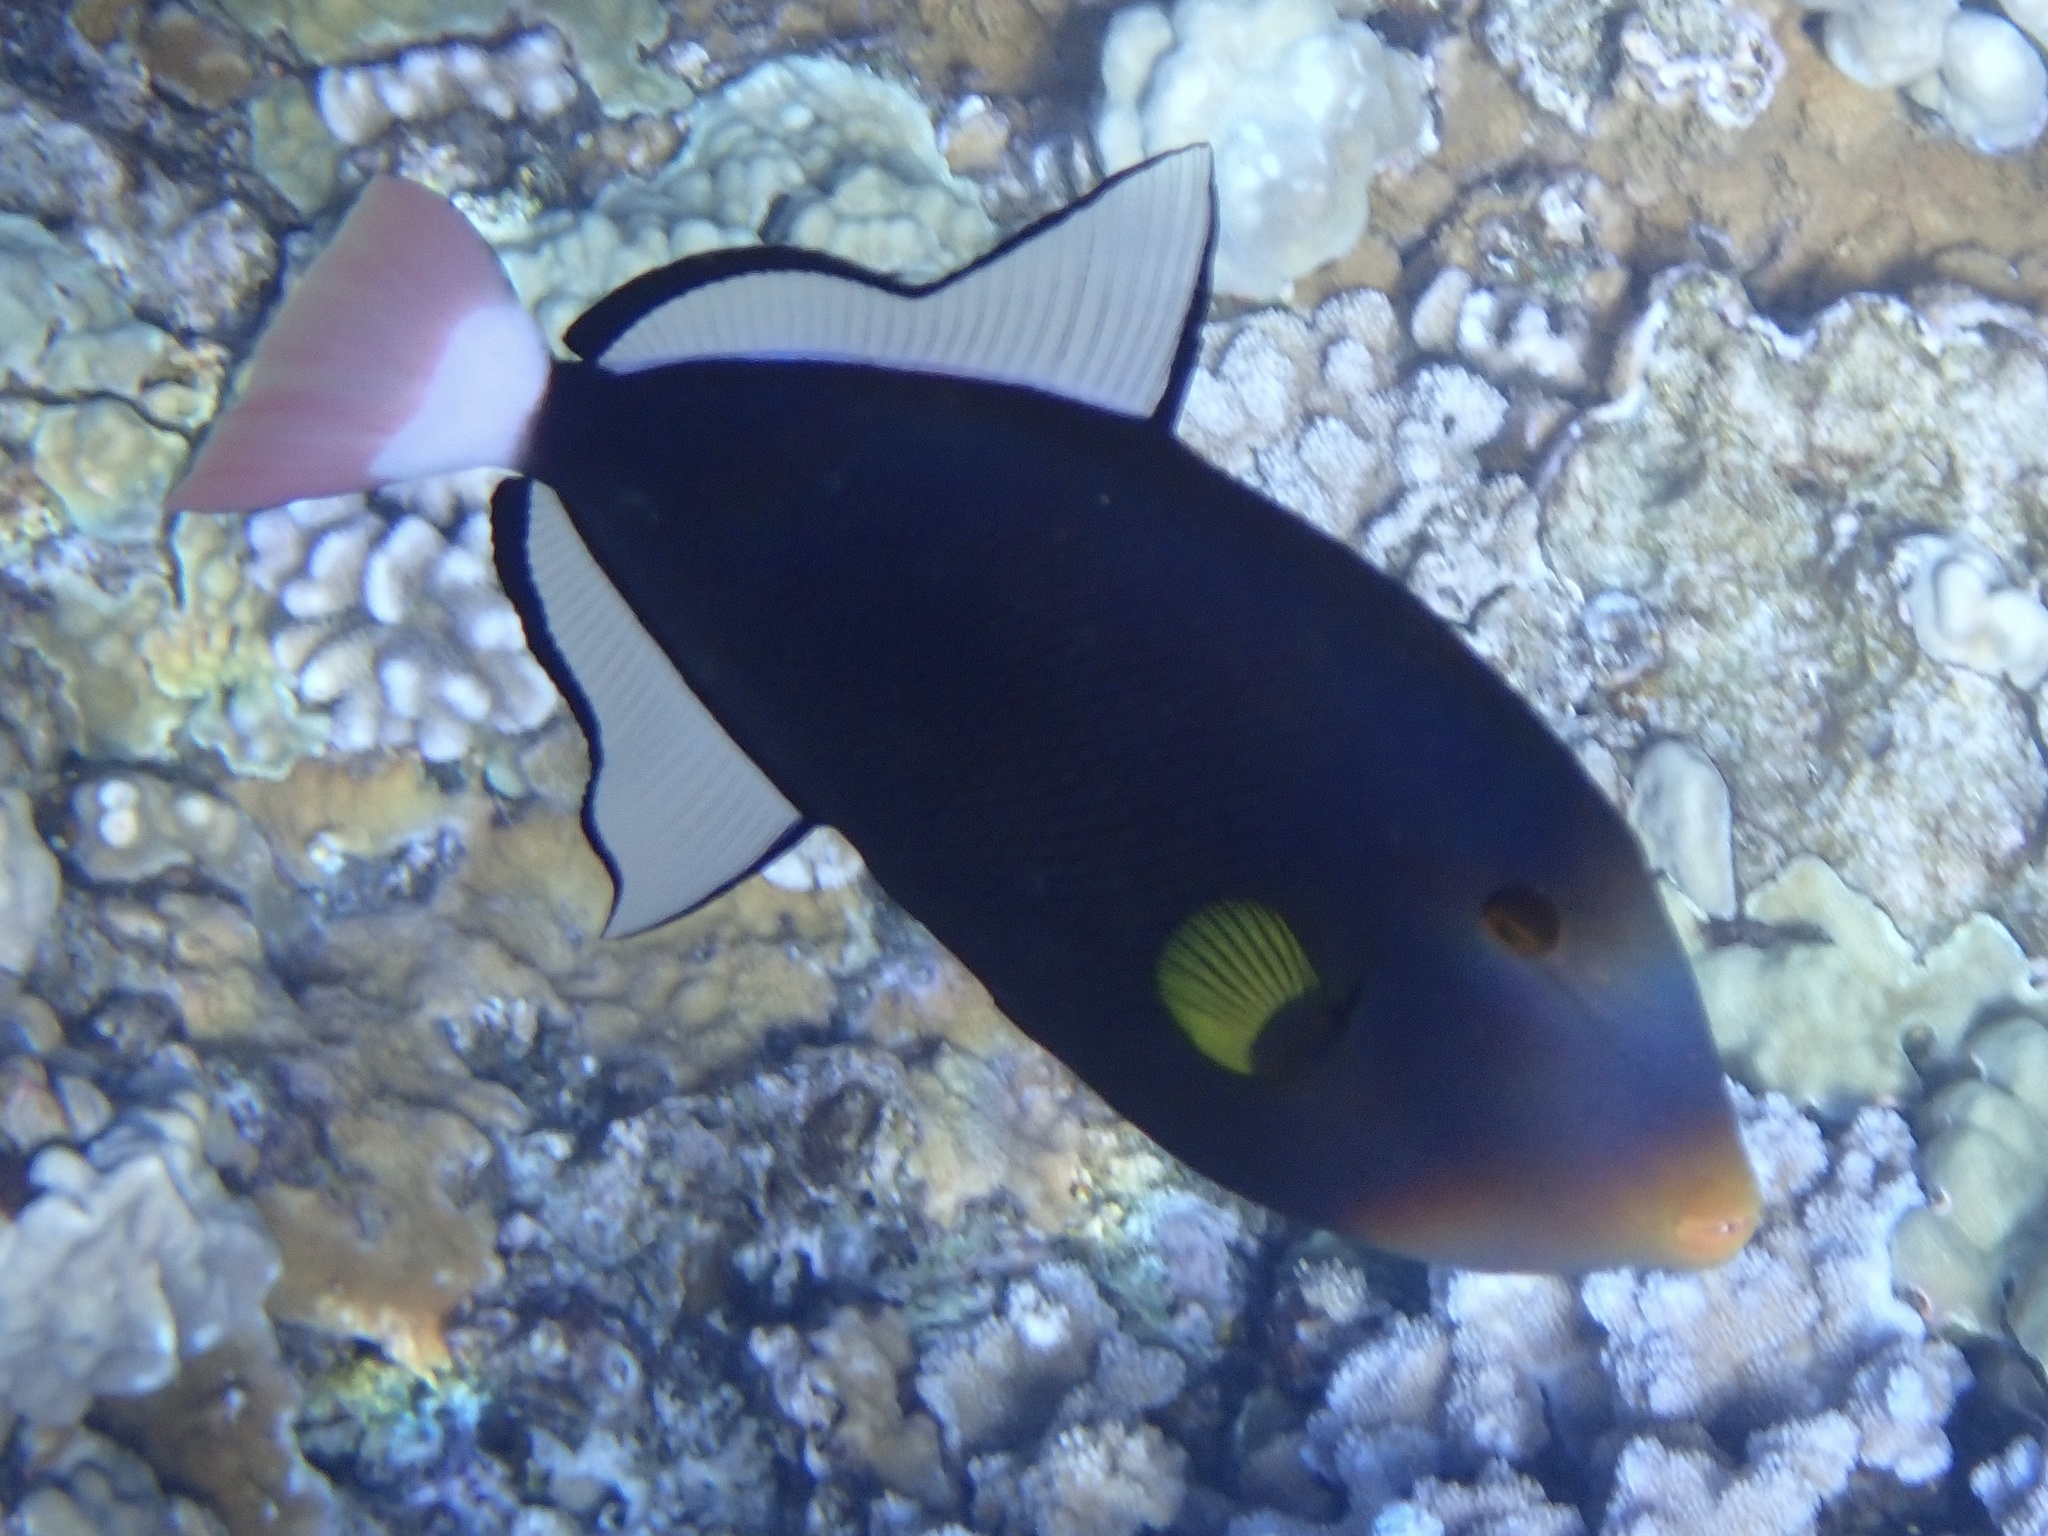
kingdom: Animalia
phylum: Chordata
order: Tetraodontiformes
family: Balistidae
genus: Melichthys
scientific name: Melichthys vidua
